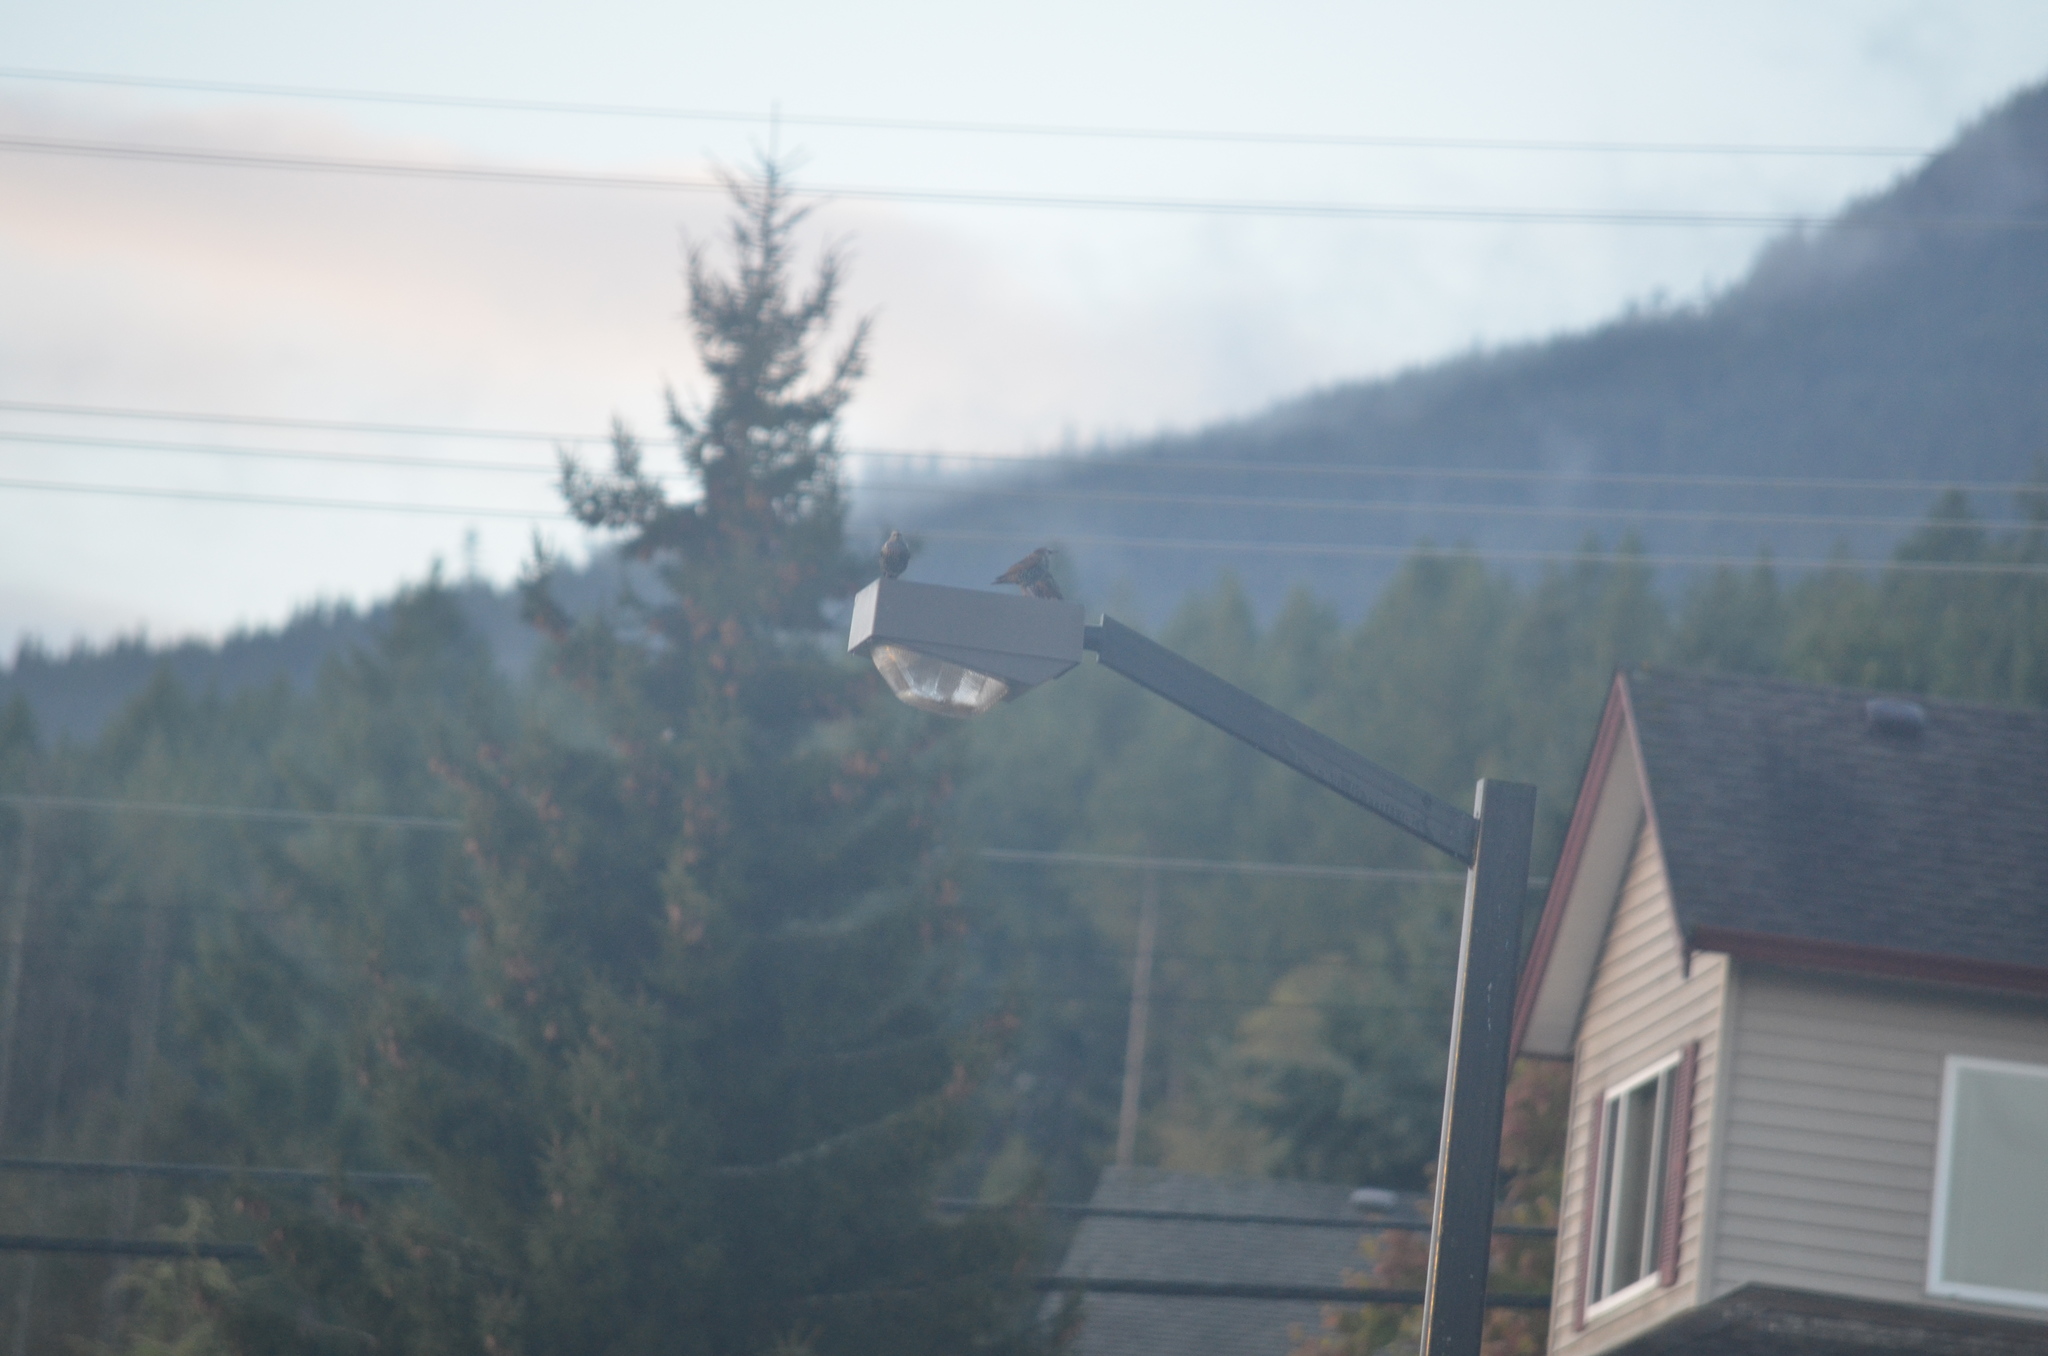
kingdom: Animalia
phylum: Chordata
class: Aves
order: Passeriformes
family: Sturnidae
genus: Sturnus
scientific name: Sturnus vulgaris
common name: Common starling
